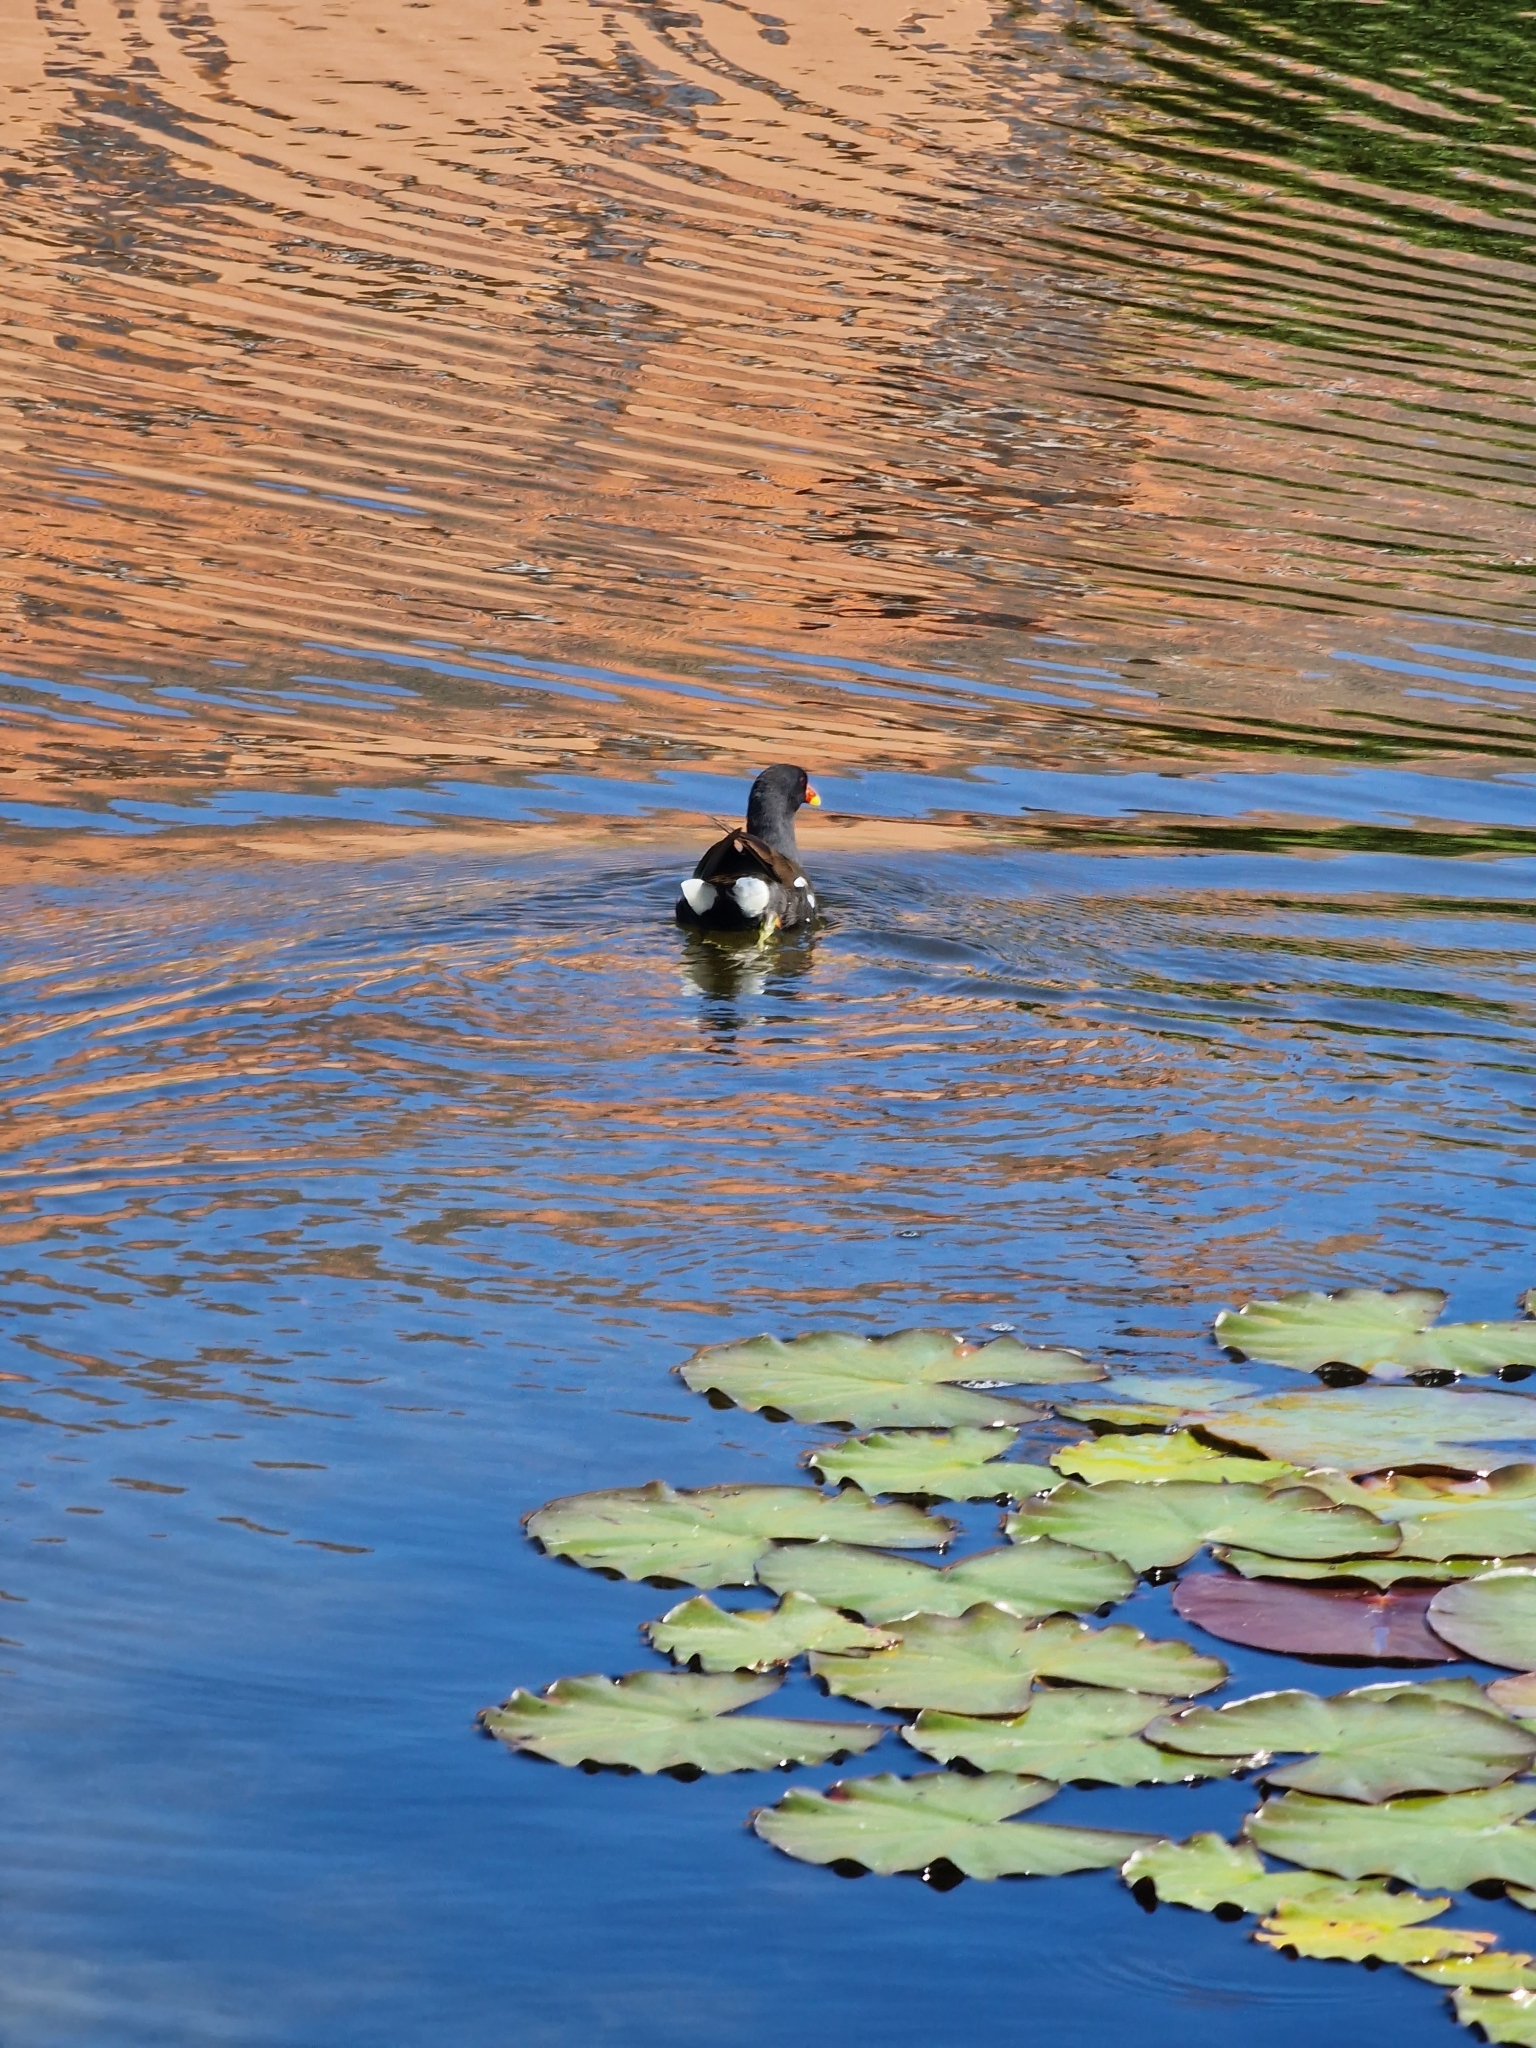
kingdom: Animalia
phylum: Chordata
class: Aves
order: Gruiformes
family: Rallidae
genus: Gallinula
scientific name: Gallinula chloropus
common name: Common moorhen
